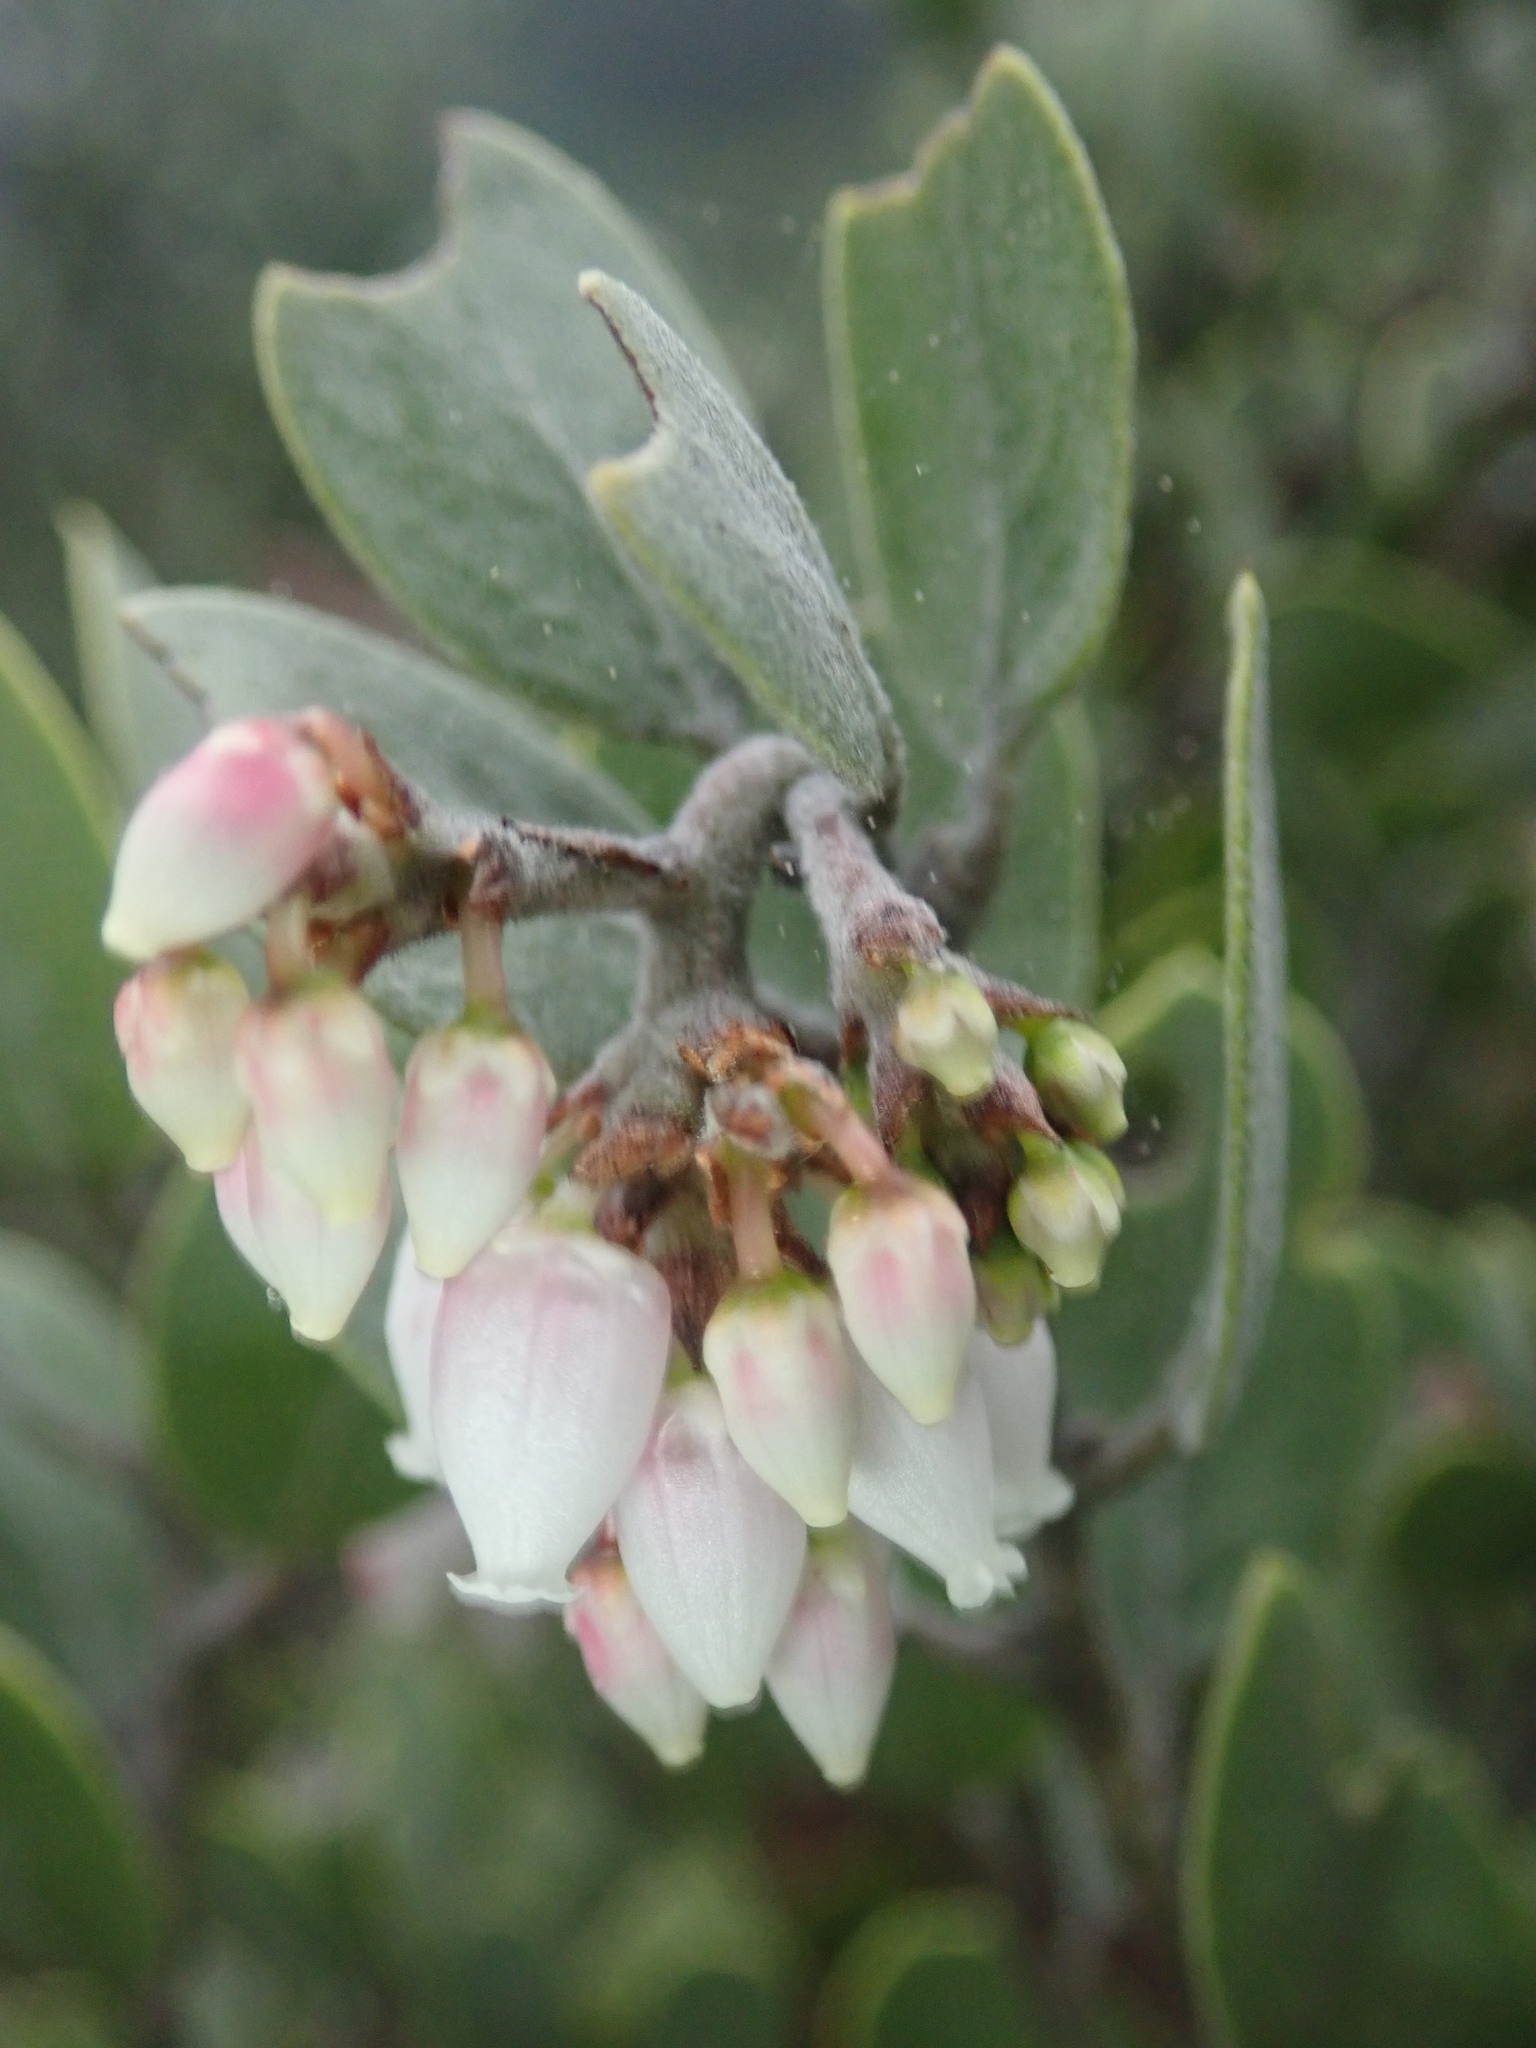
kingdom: Plantae
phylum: Tracheophyta
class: Magnoliopsida
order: Ericales
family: Ericaceae
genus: Arctostaphylos
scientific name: Arctostaphylos montana
